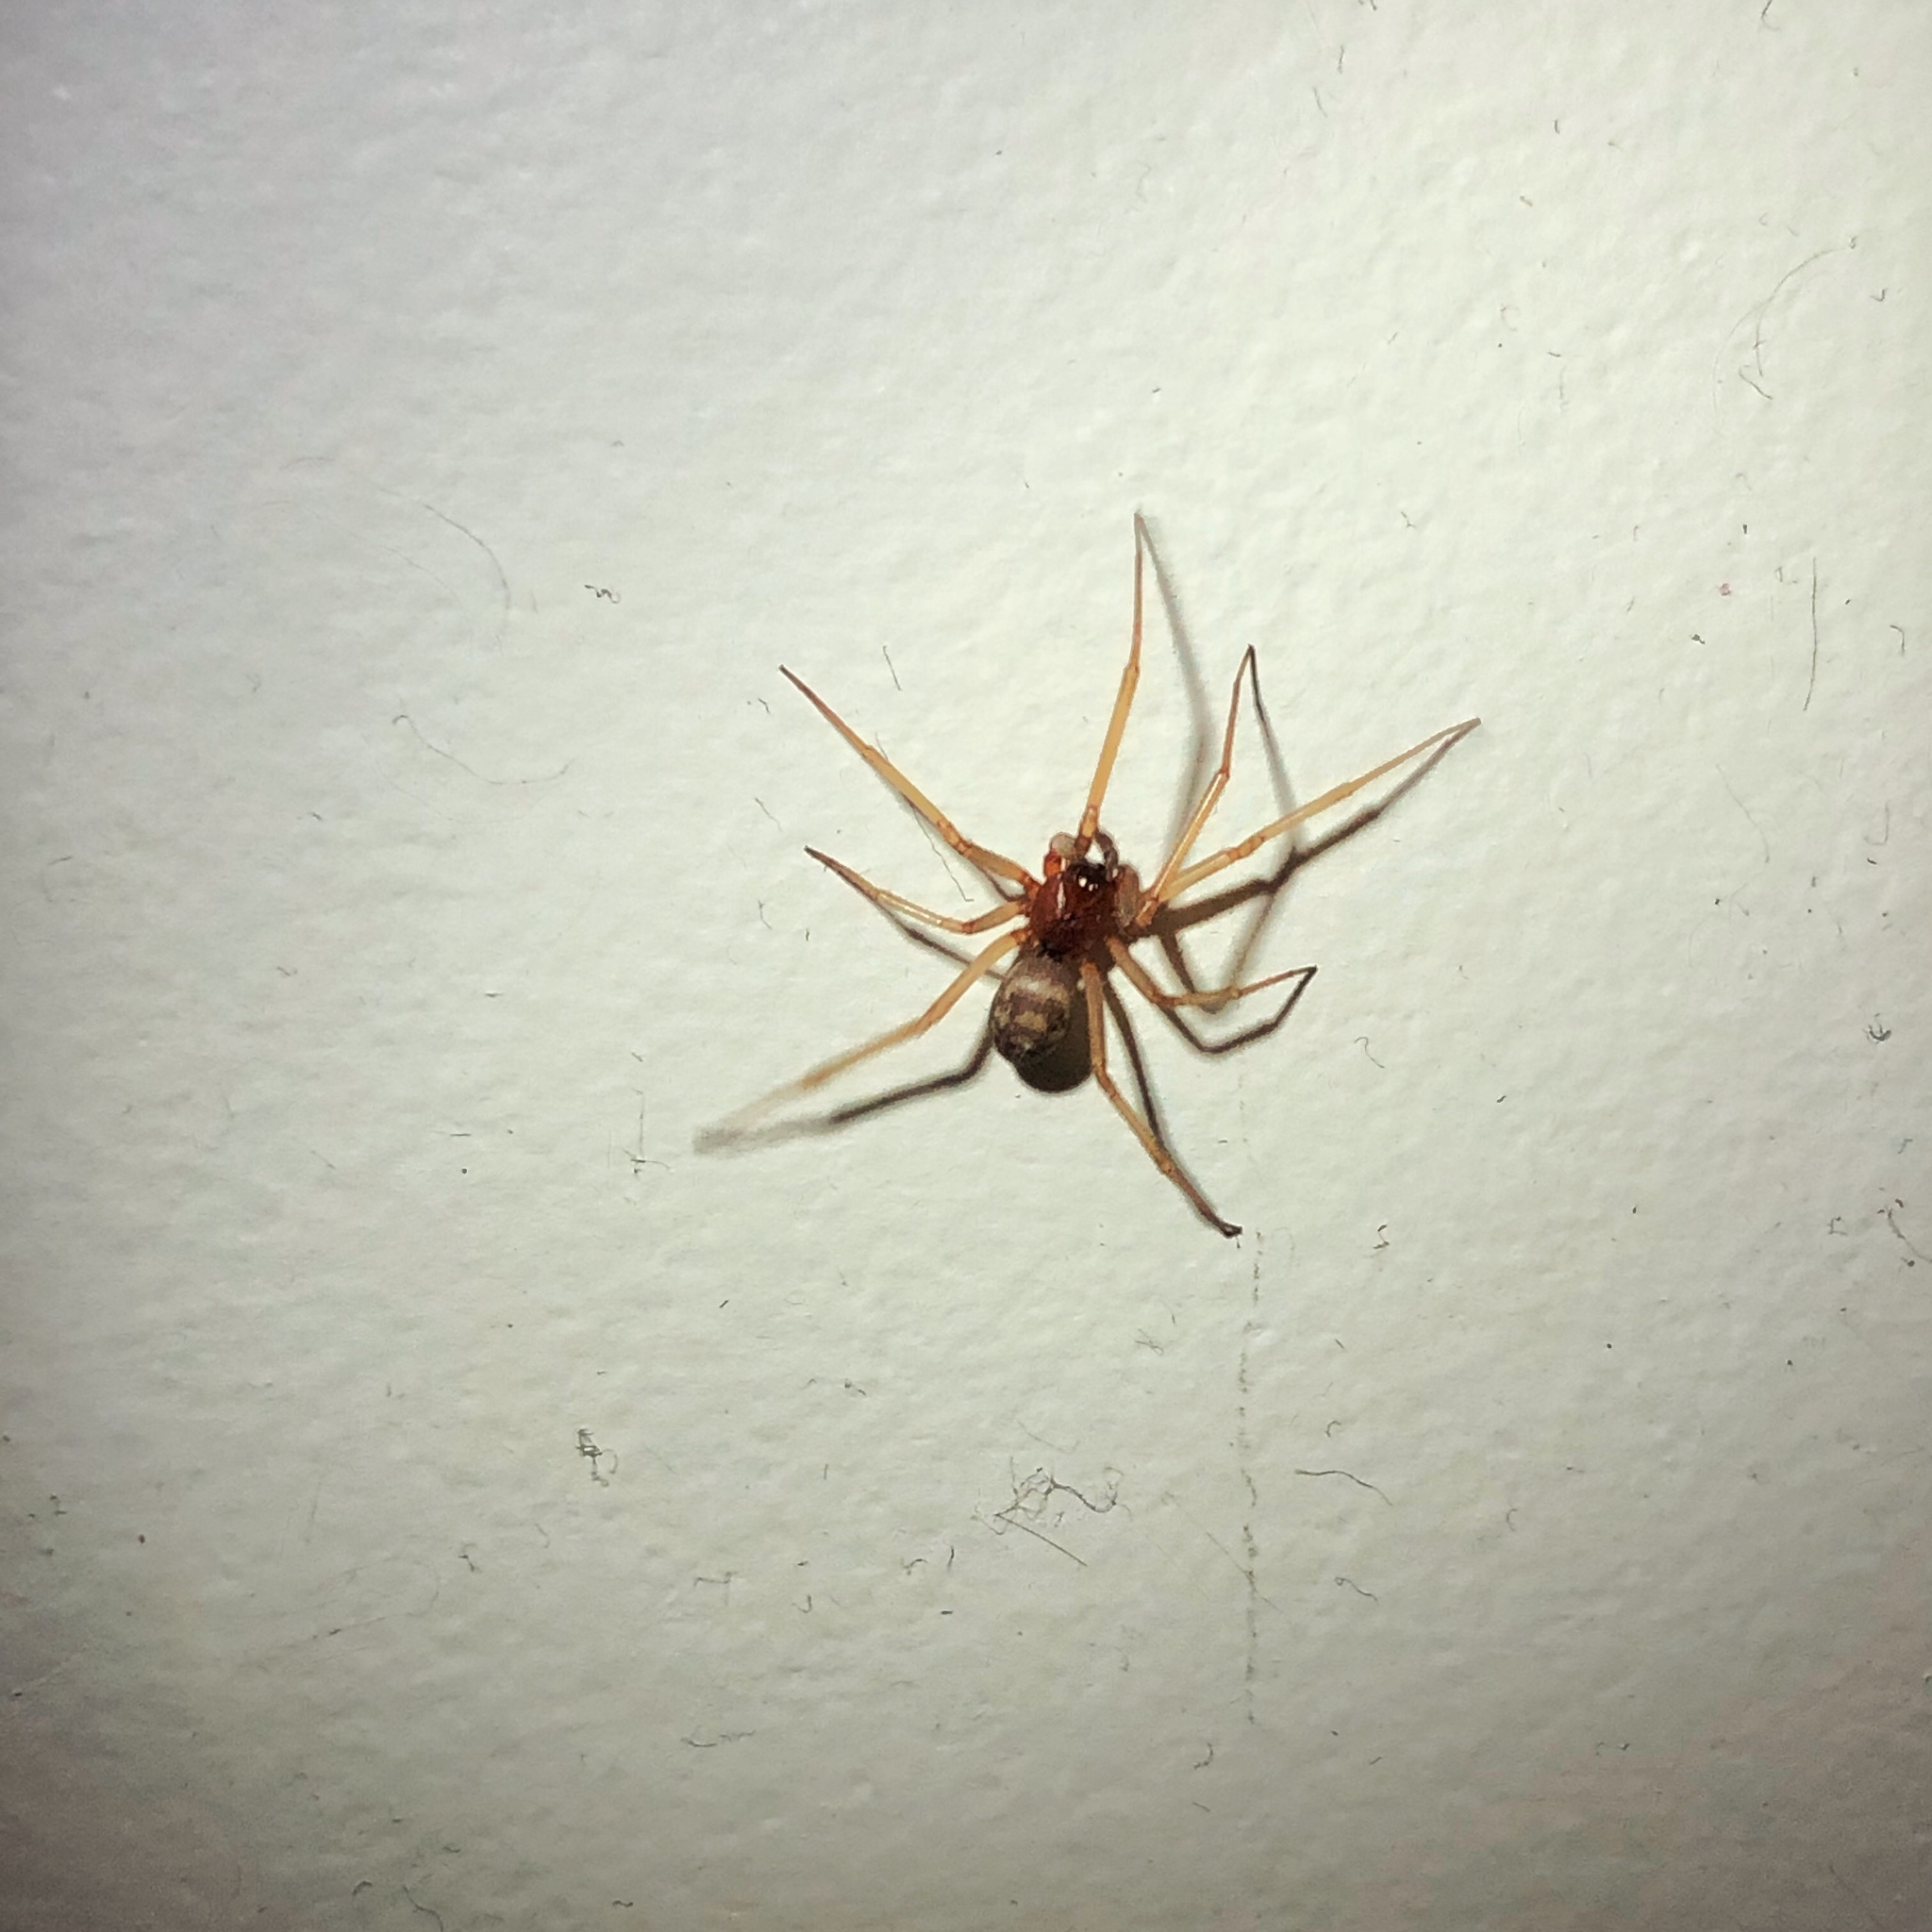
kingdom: Animalia
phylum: Arthropoda
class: Arachnida
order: Araneae
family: Theridiidae
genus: Steatoda
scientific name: Steatoda grossa
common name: False black widow
